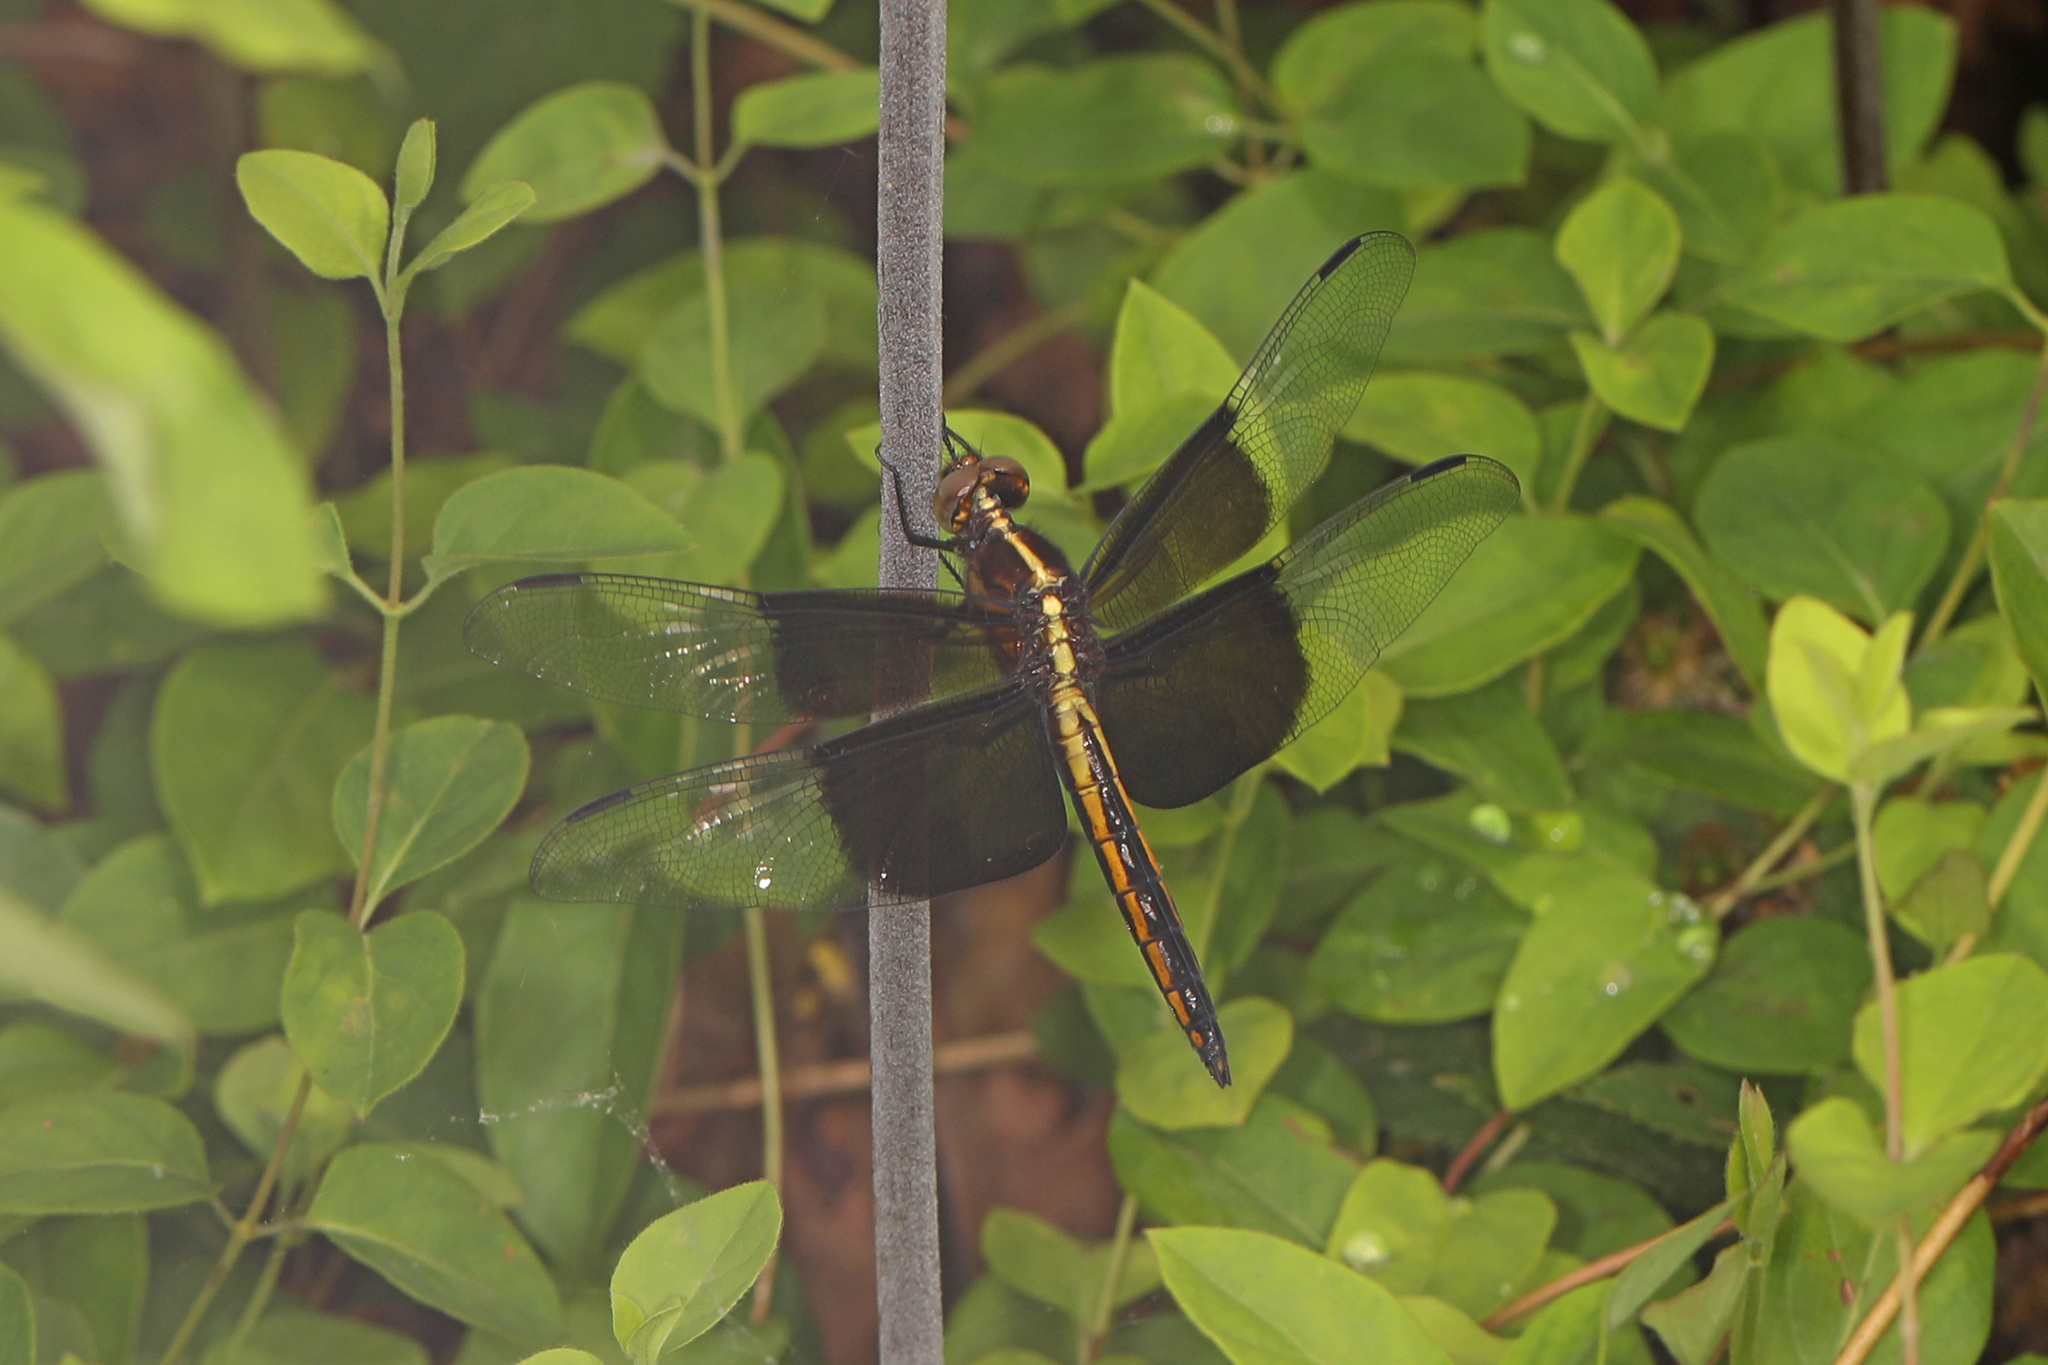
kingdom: Animalia
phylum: Arthropoda
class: Insecta
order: Odonata
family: Libellulidae
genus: Libellula
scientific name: Libellula luctuosa
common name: Widow skimmer
